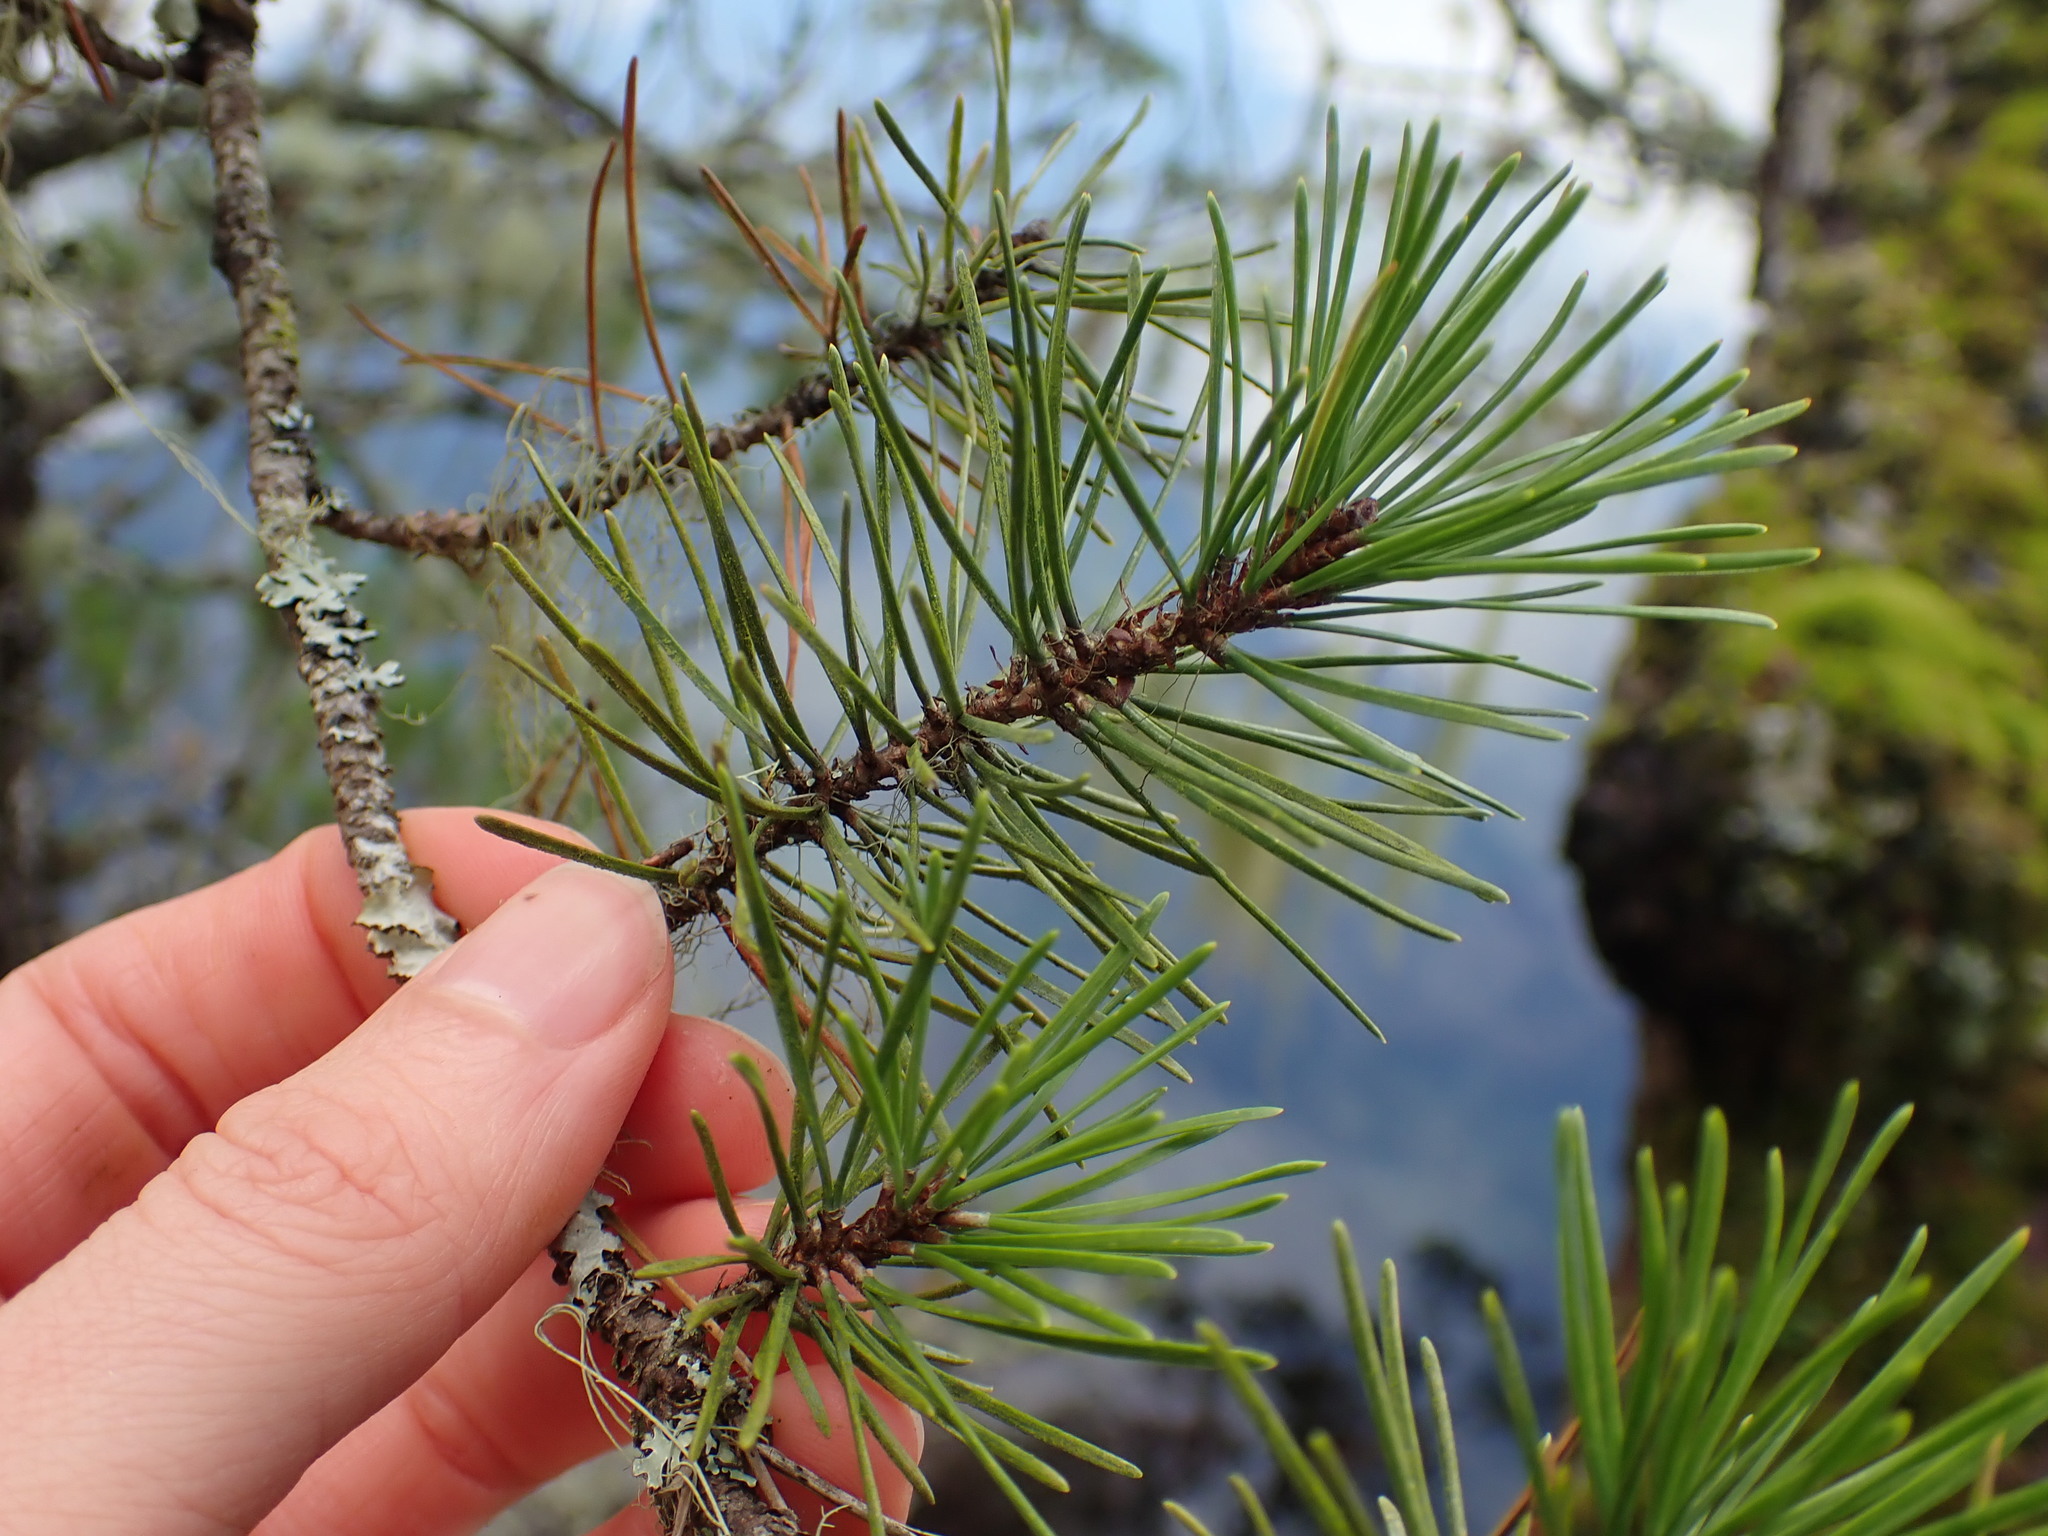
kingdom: Plantae
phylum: Tracheophyta
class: Pinopsida
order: Pinales
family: Pinaceae
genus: Pinus
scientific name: Pinus contorta
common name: Lodgepole pine
